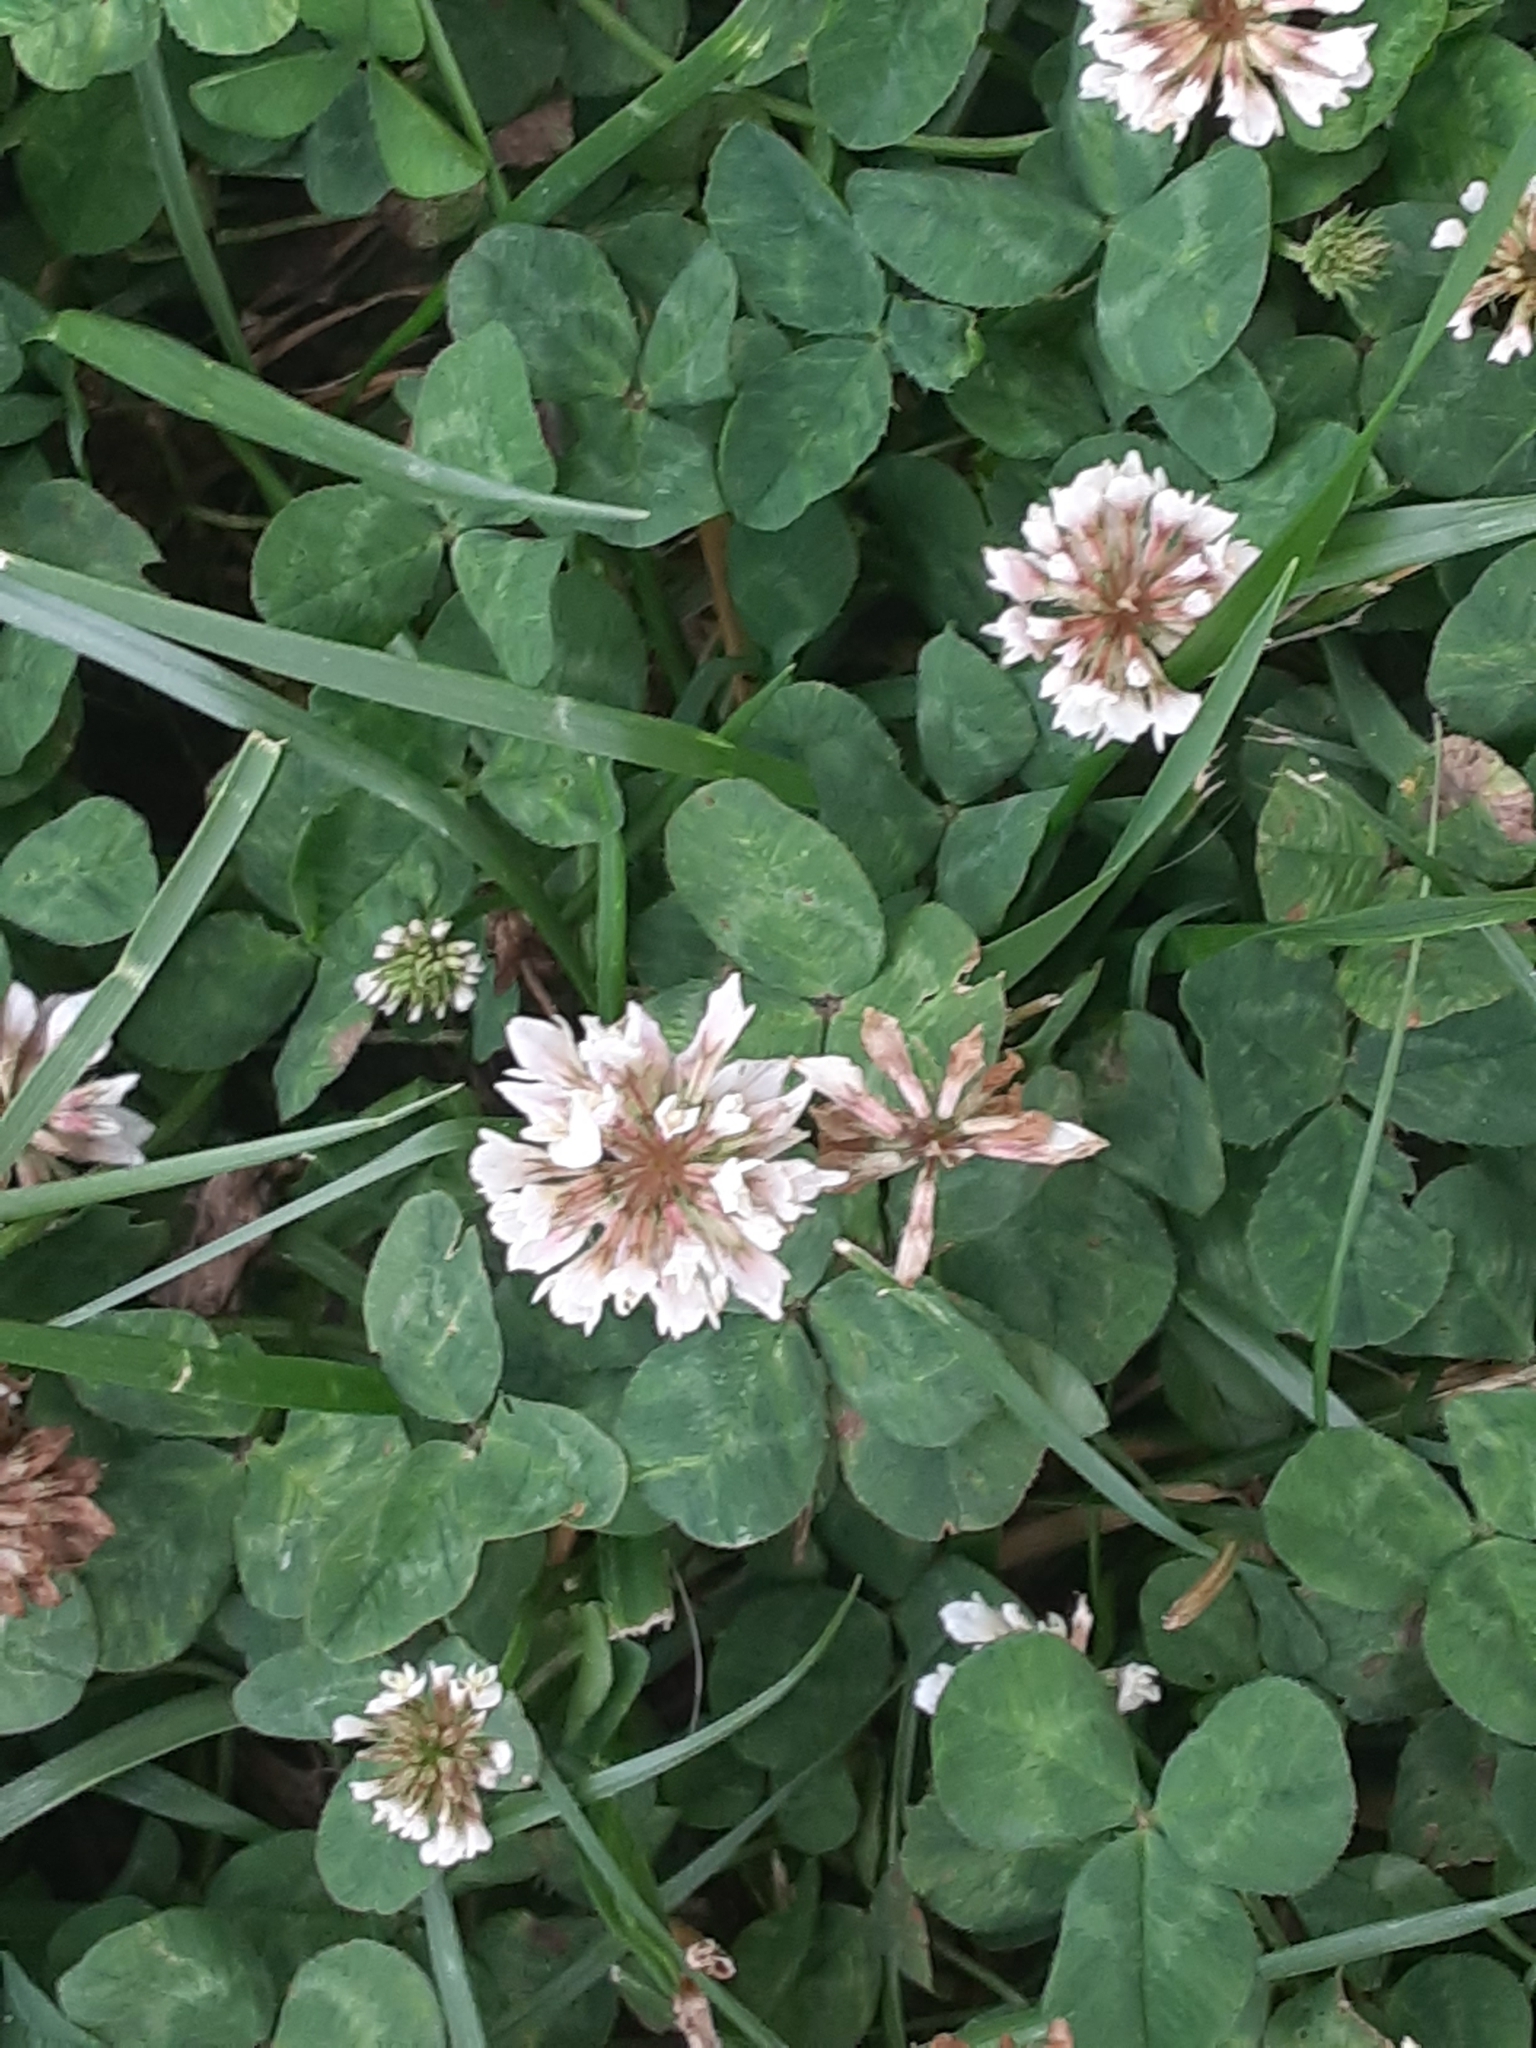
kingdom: Plantae
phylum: Tracheophyta
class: Magnoliopsida
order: Fabales
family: Fabaceae
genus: Trifolium
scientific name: Trifolium repens
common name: White clover
